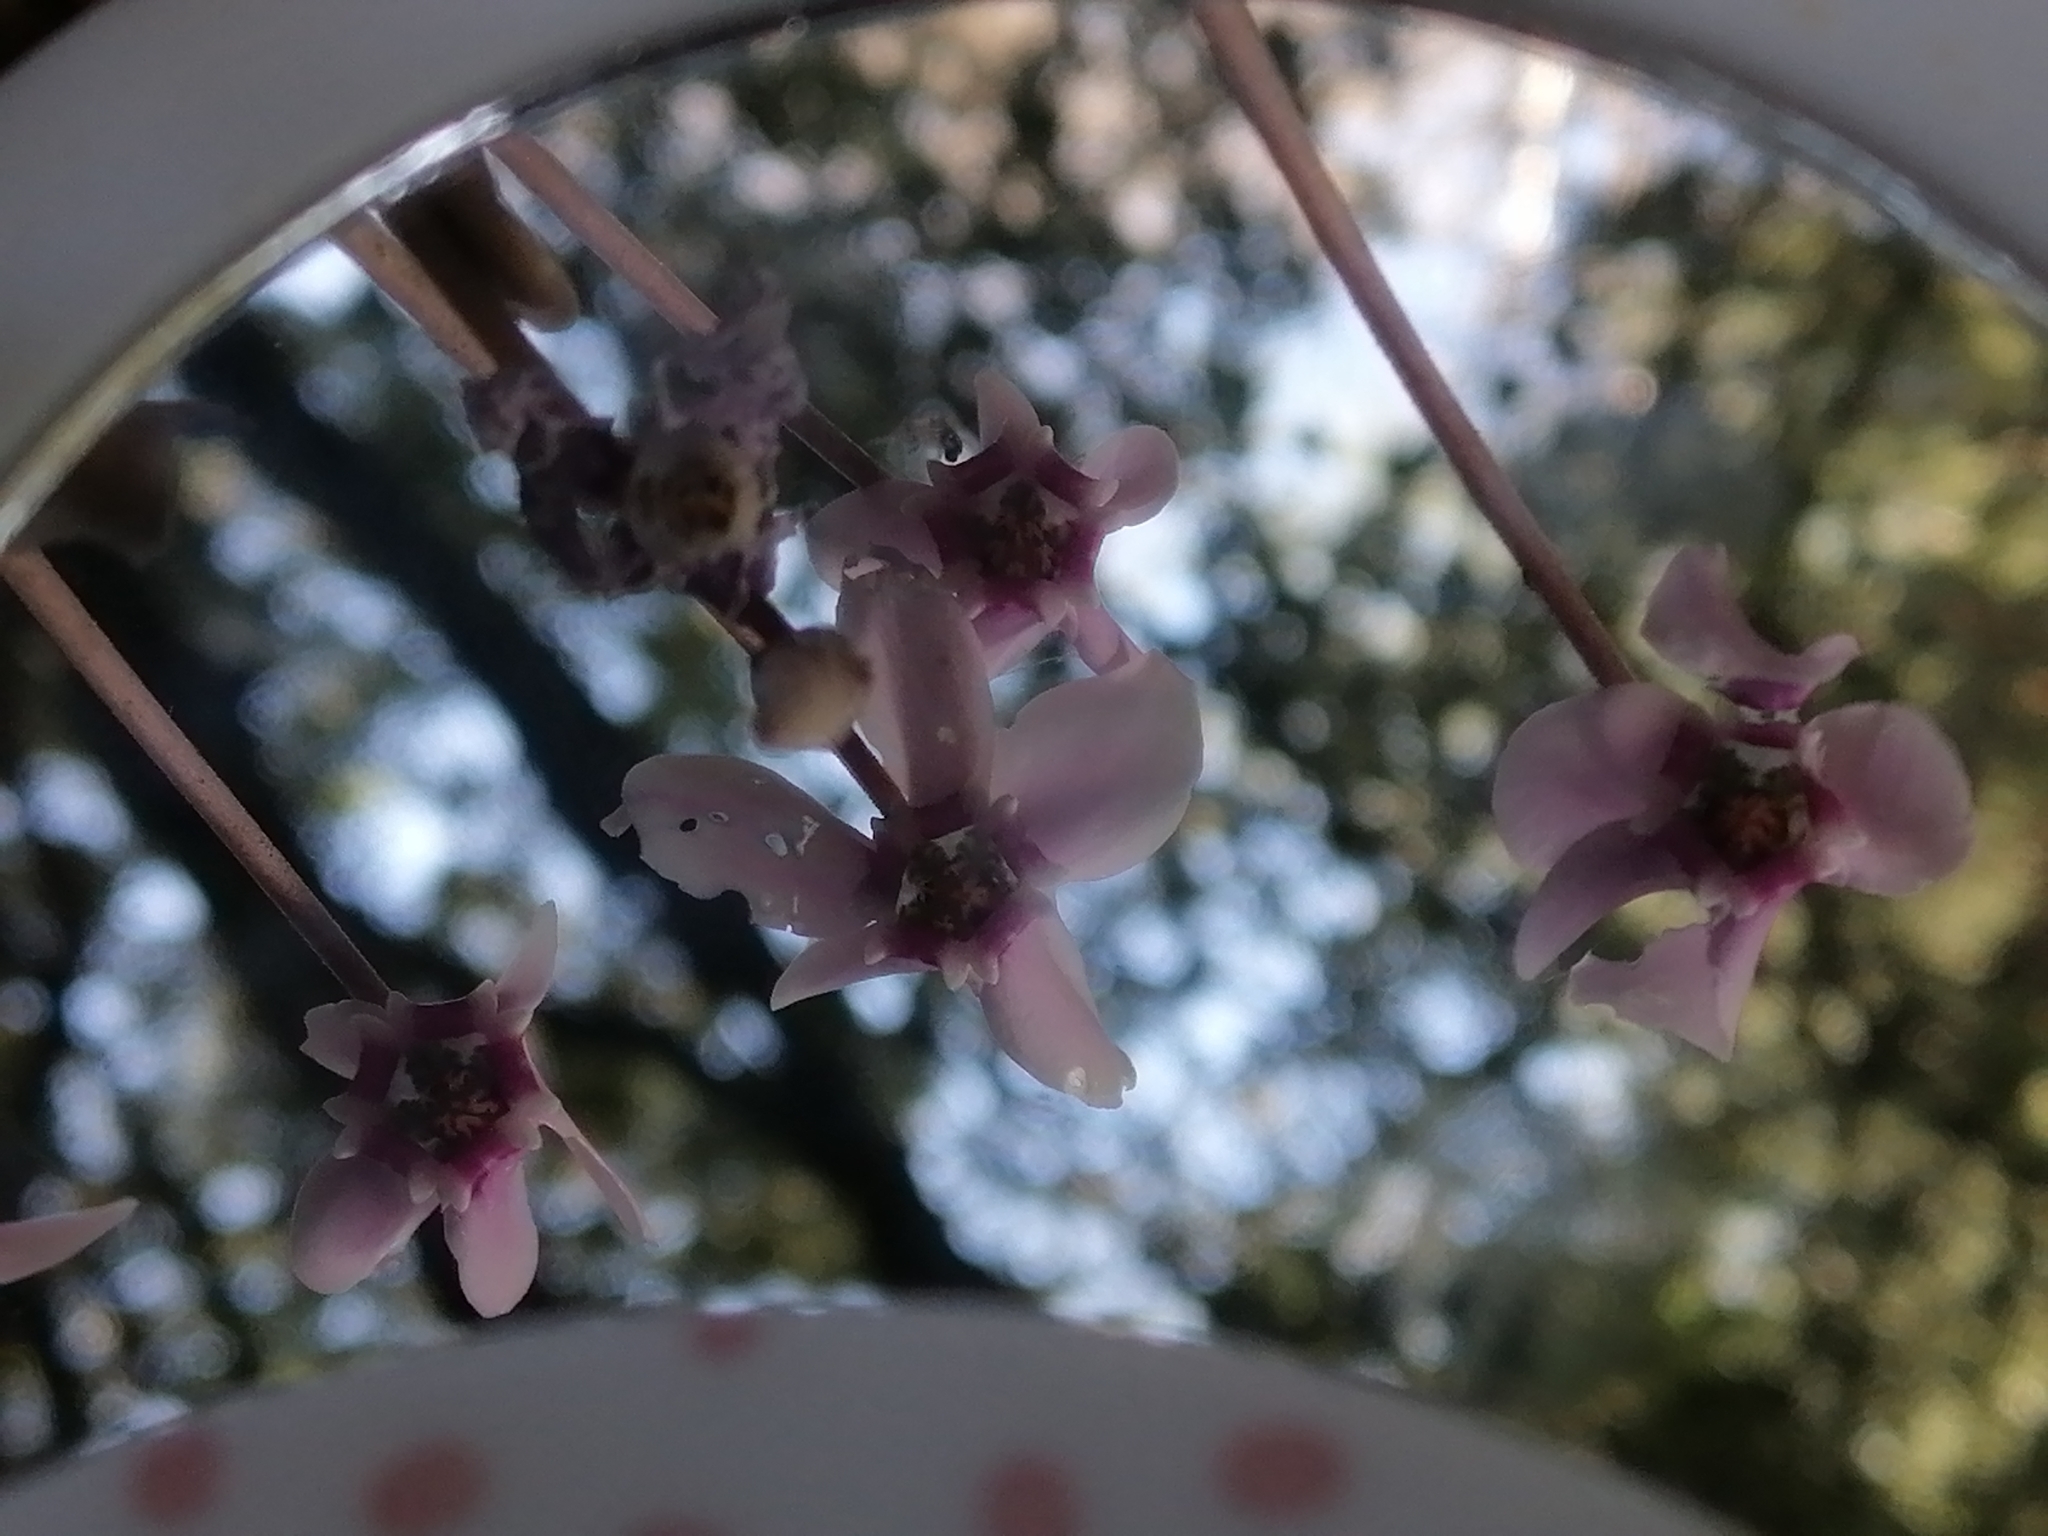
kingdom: Plantae
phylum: Tracheophyta
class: Magnoliopsida
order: Ericales
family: Primulaceae
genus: Cyclamen
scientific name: Cyclamen hederifolium
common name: Sowbread
